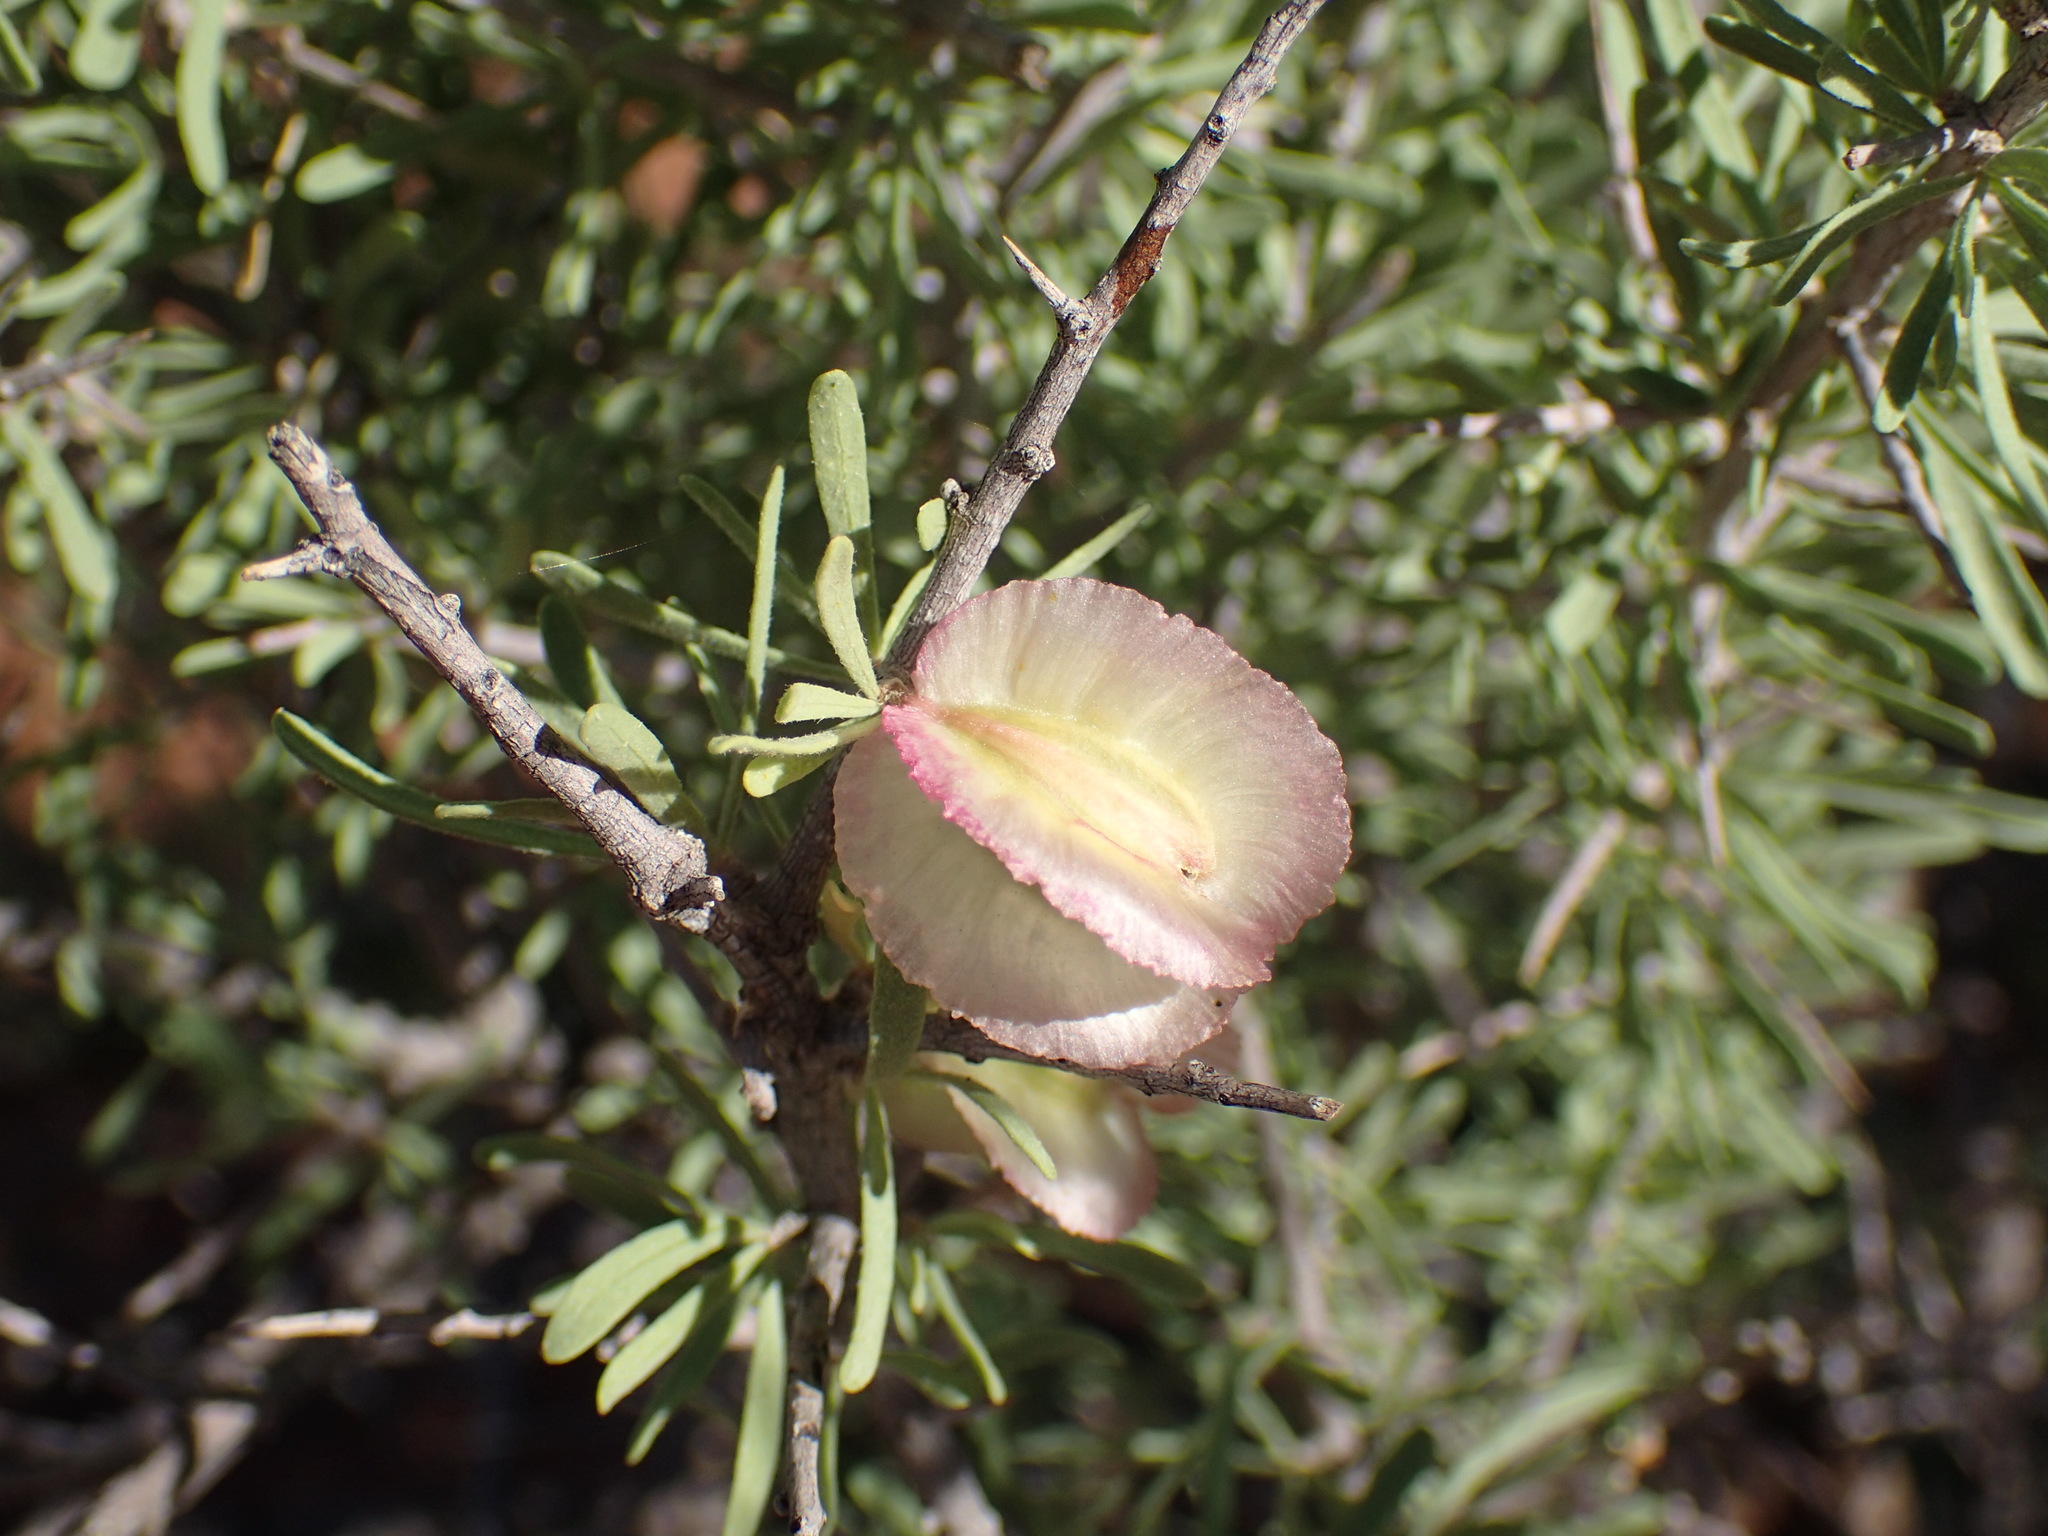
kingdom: Plantae
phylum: Tracheophyta
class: Magnoliopsida
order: Caryophyllales
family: Nyctaginaceae
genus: Phaeoptilum
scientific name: Phaeoptilum spinosum
